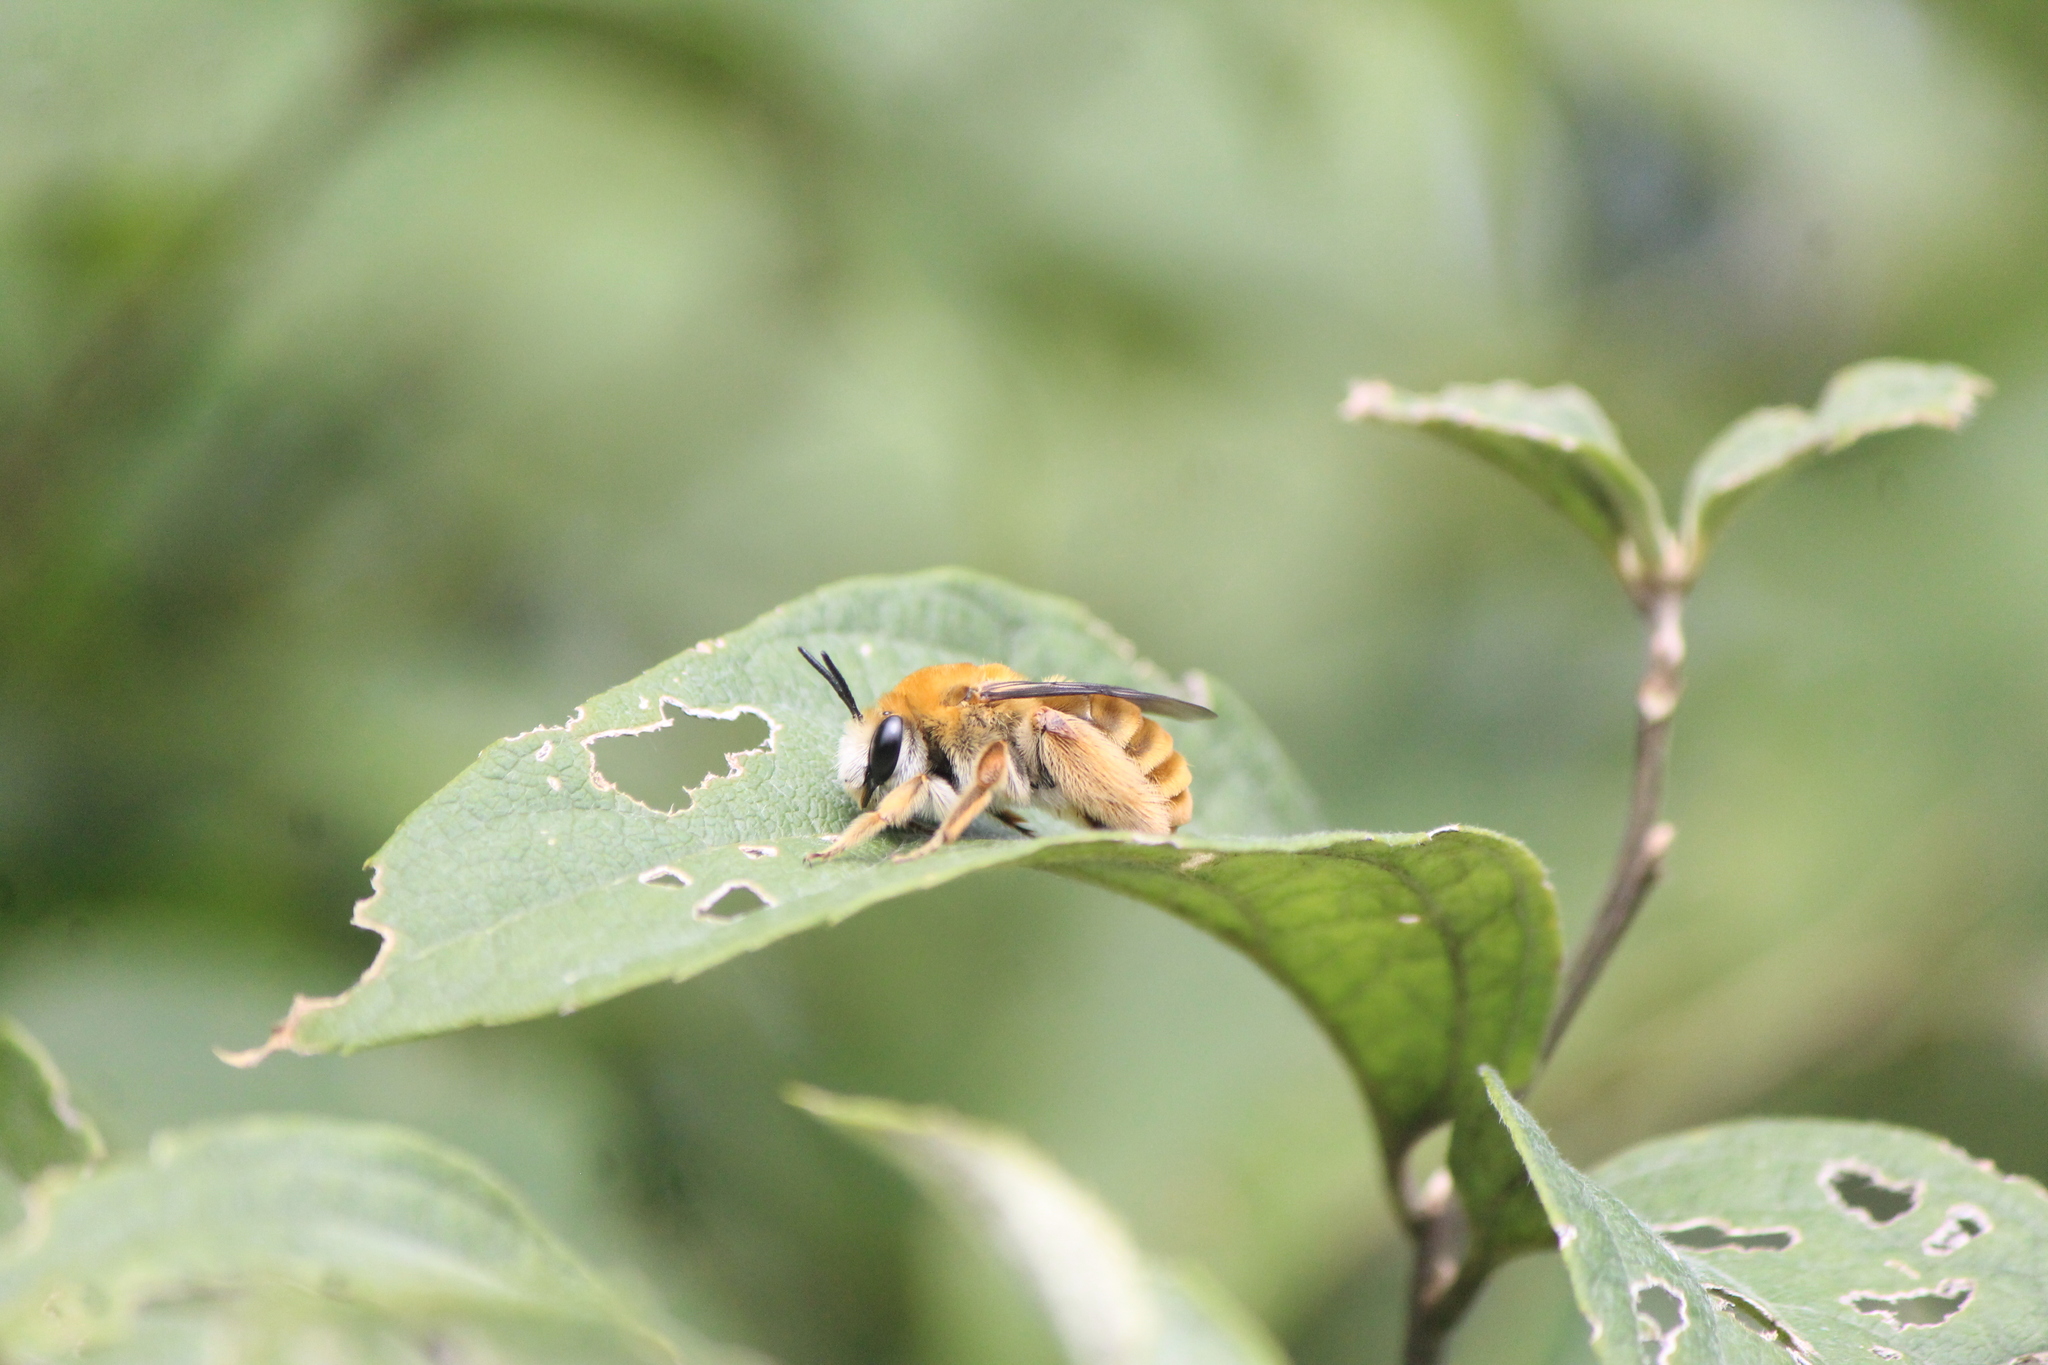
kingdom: Animalia
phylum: Arthropoda
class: Insecta
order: Hymenoptera
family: Apidae
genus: Syntrichalonia
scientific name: Syntrichalonia exquisita
